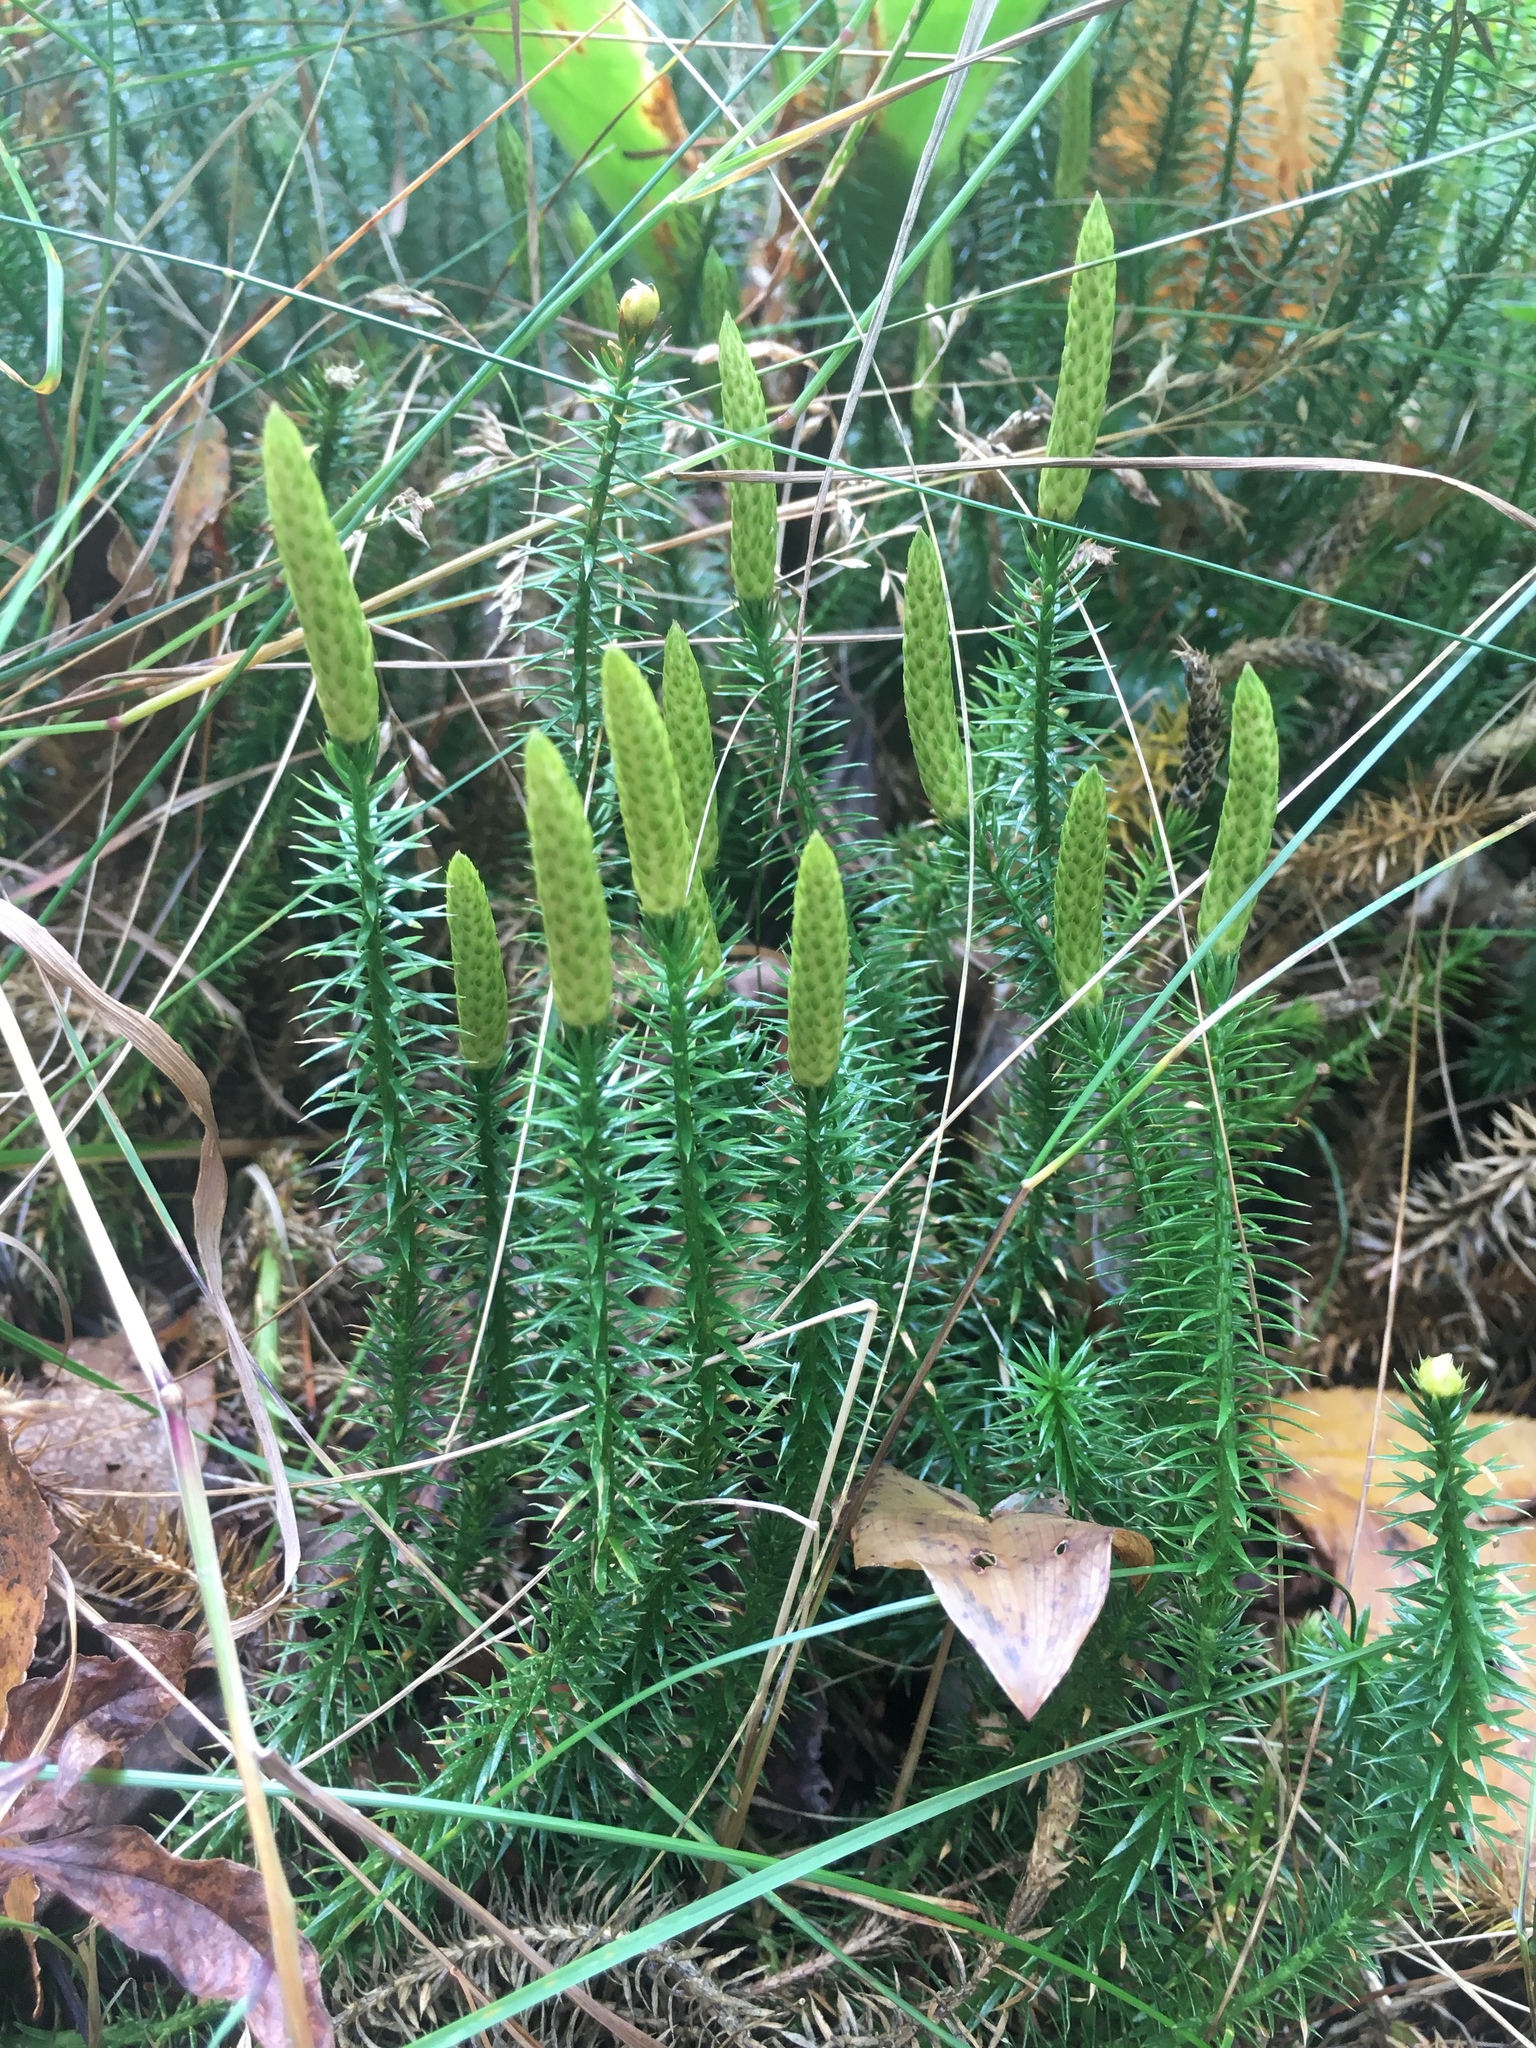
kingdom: Plantae
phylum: Tracheophyta
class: Lycopodiopsida
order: Lycopodiales
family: Lycopodiaceae
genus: Spinulum
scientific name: Spinulum annotinum
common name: Interrupted club-moss
